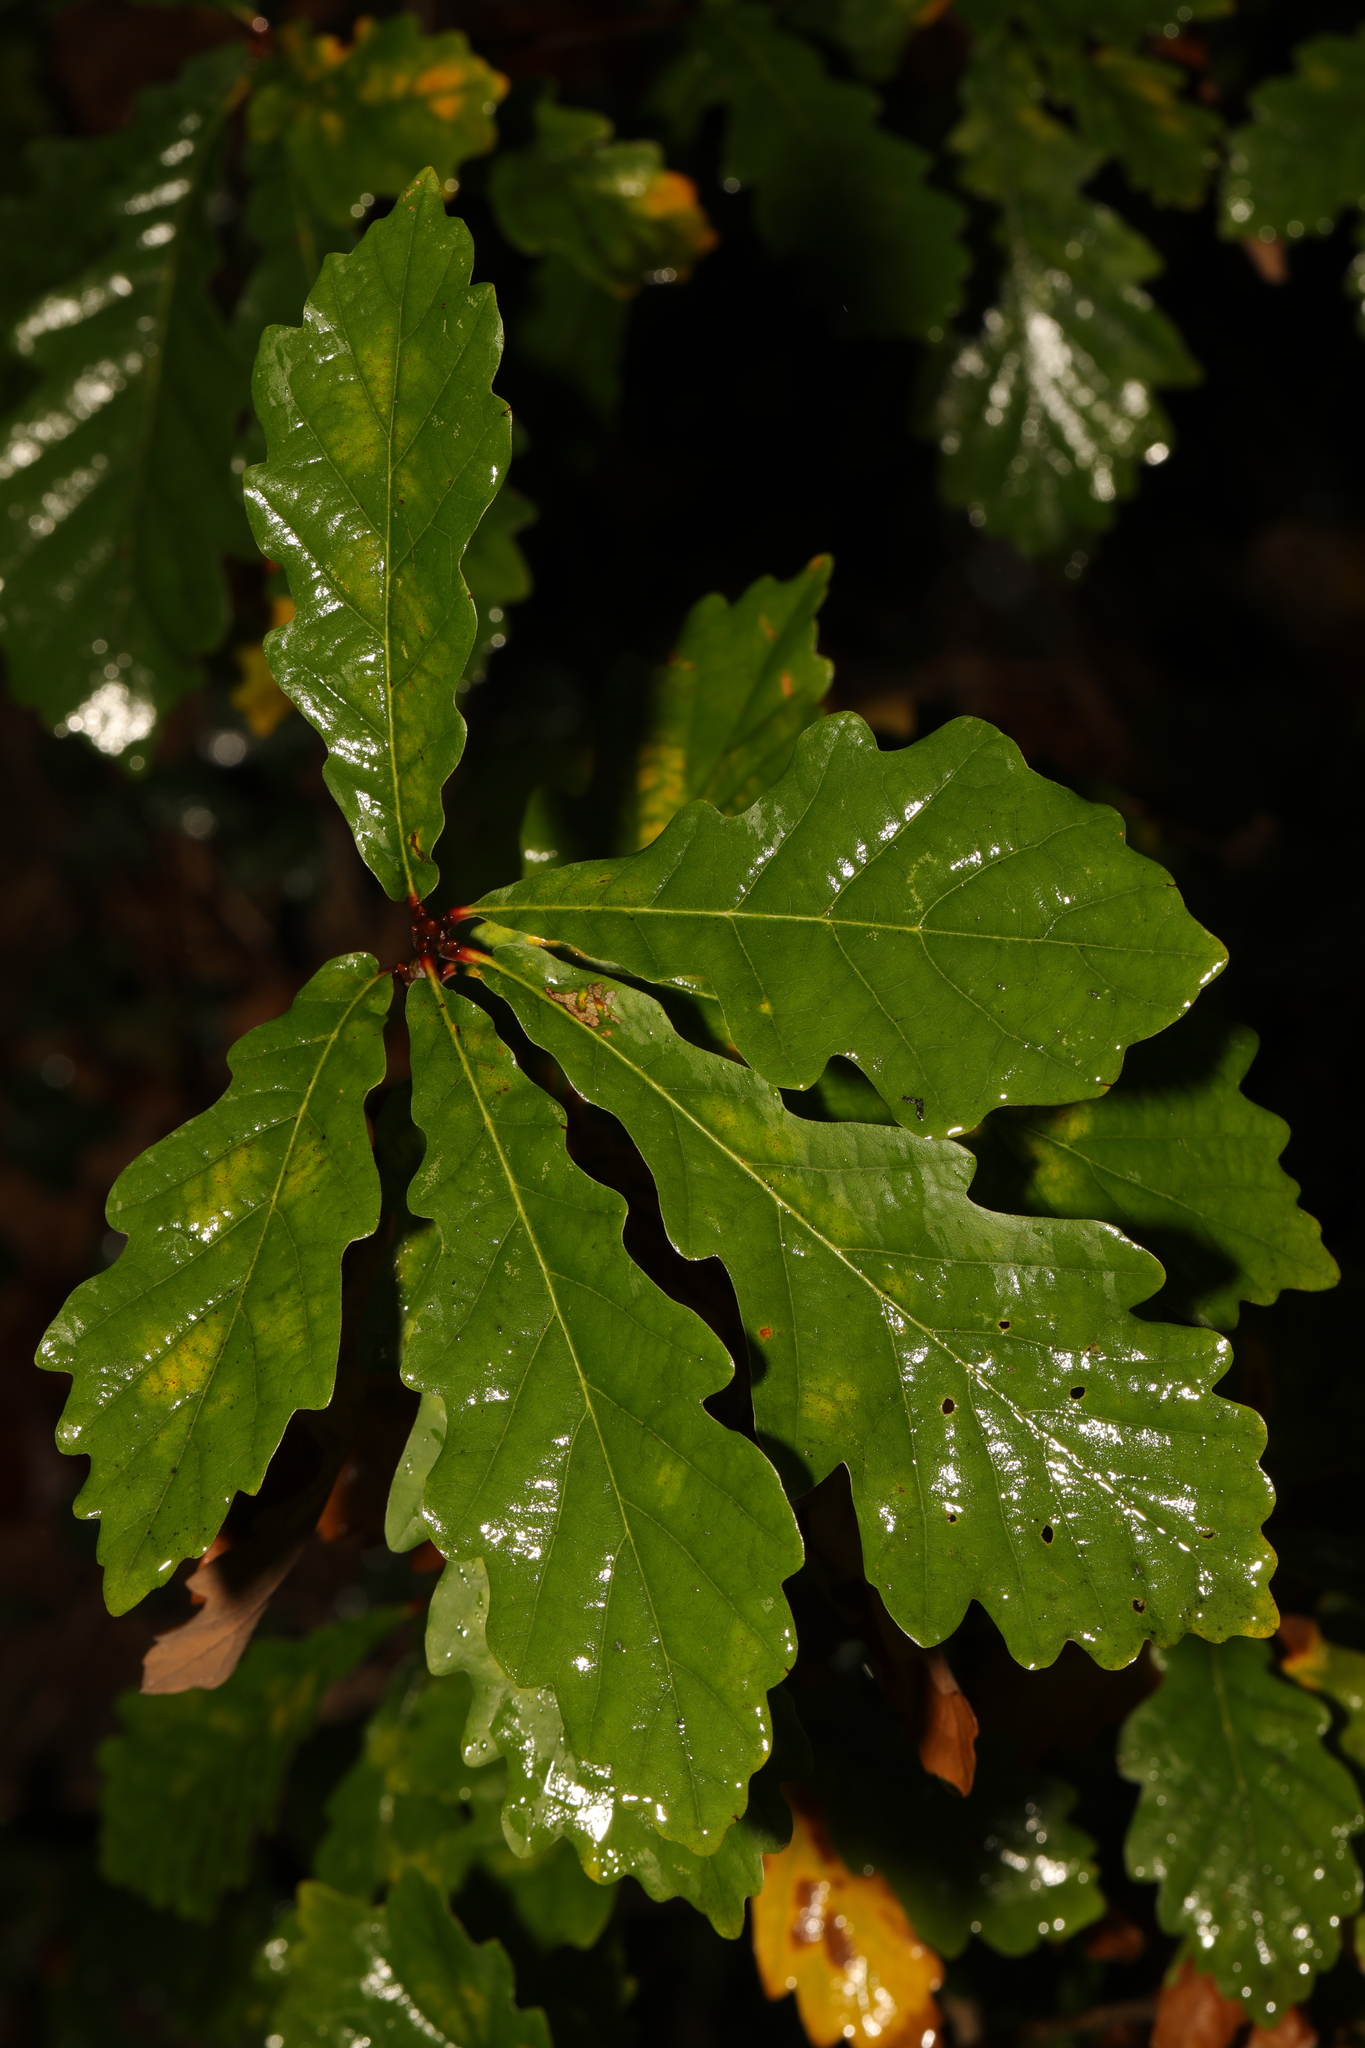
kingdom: Plantae
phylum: Tracheophyta
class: Magnoliopsida
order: Fagales
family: Fagaceae
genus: Quercus
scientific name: Quercus robur
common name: Pedunculate oak
